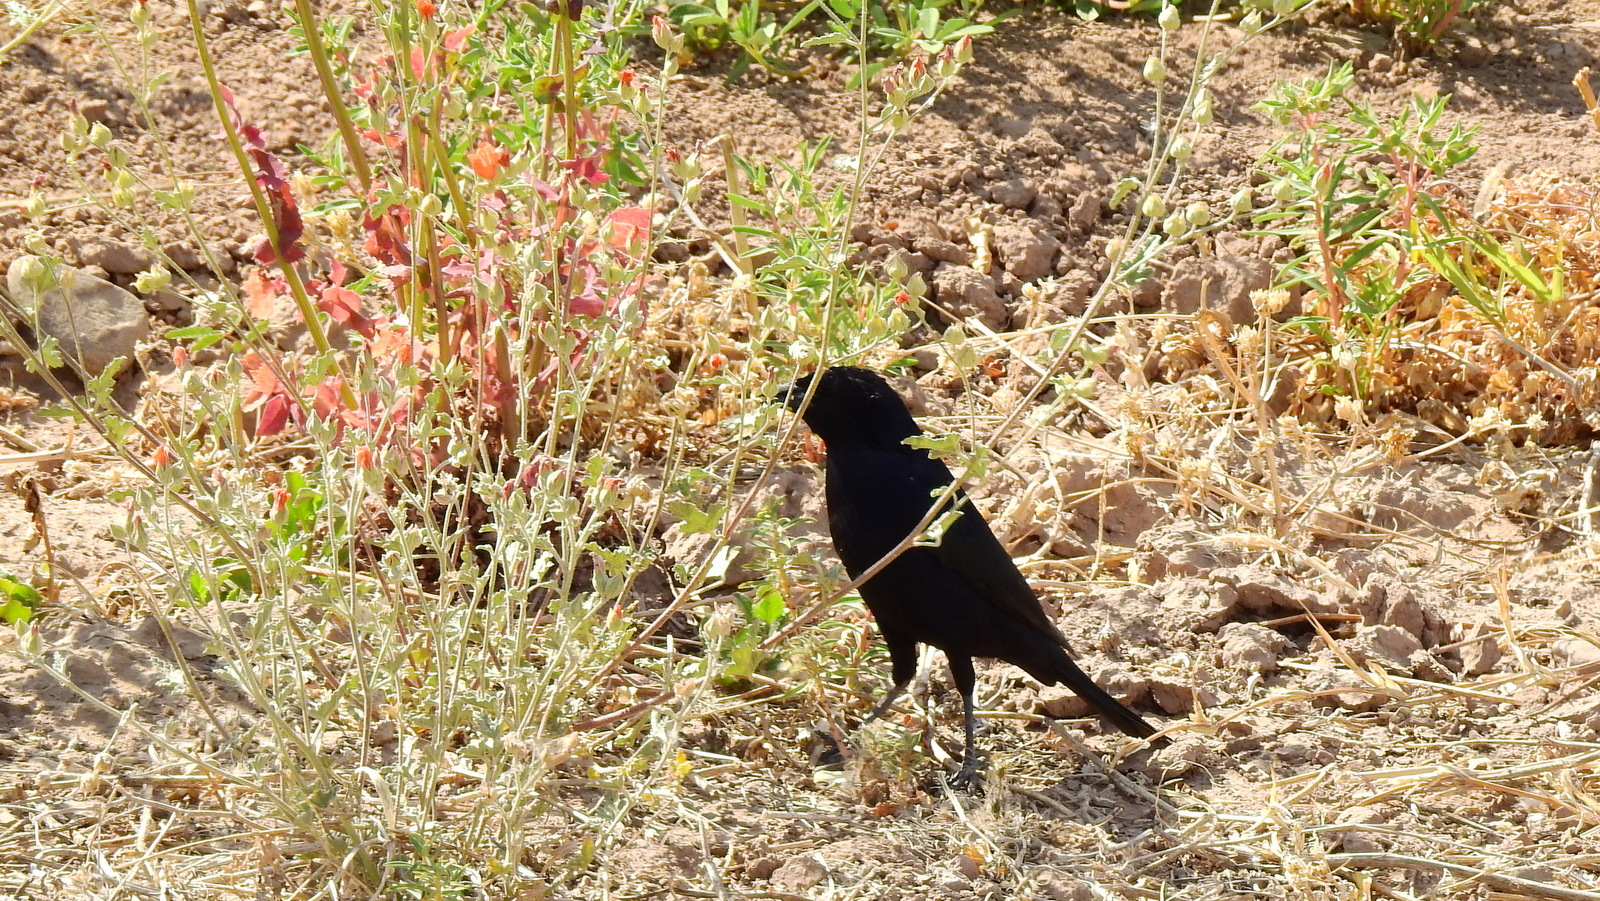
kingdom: Animalia
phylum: Chordata
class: Aves
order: Passeriformes
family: Icteridae
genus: Molothrus
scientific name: Molothrus bonariensis
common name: Shiny cowbird
